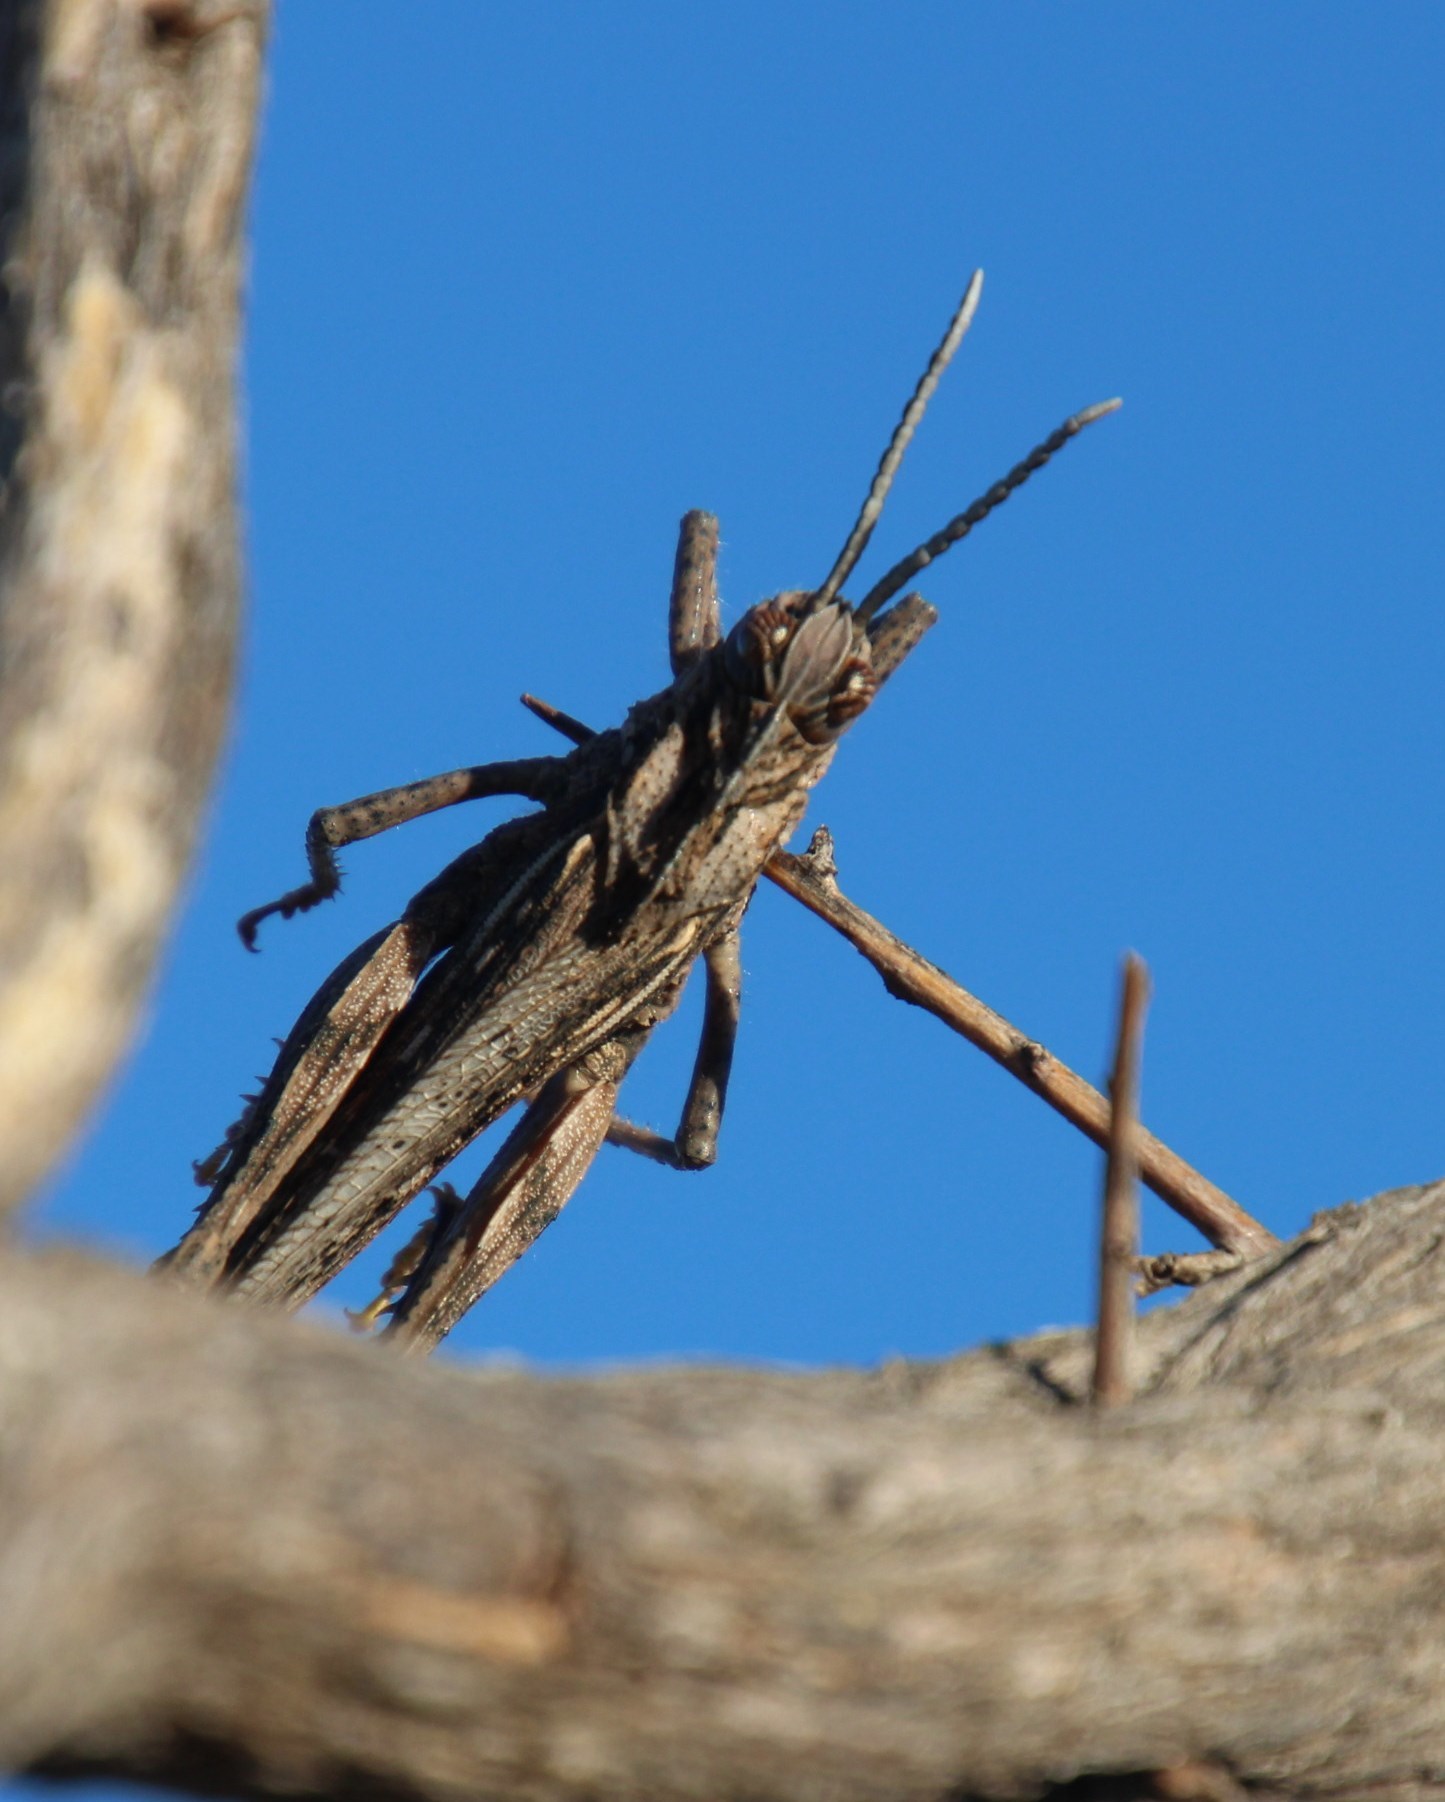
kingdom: Animalia
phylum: Arthropoda
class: Insecta
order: Orthoptera
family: Pamphagidae
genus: Adephagus
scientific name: Adephagus cristatus
